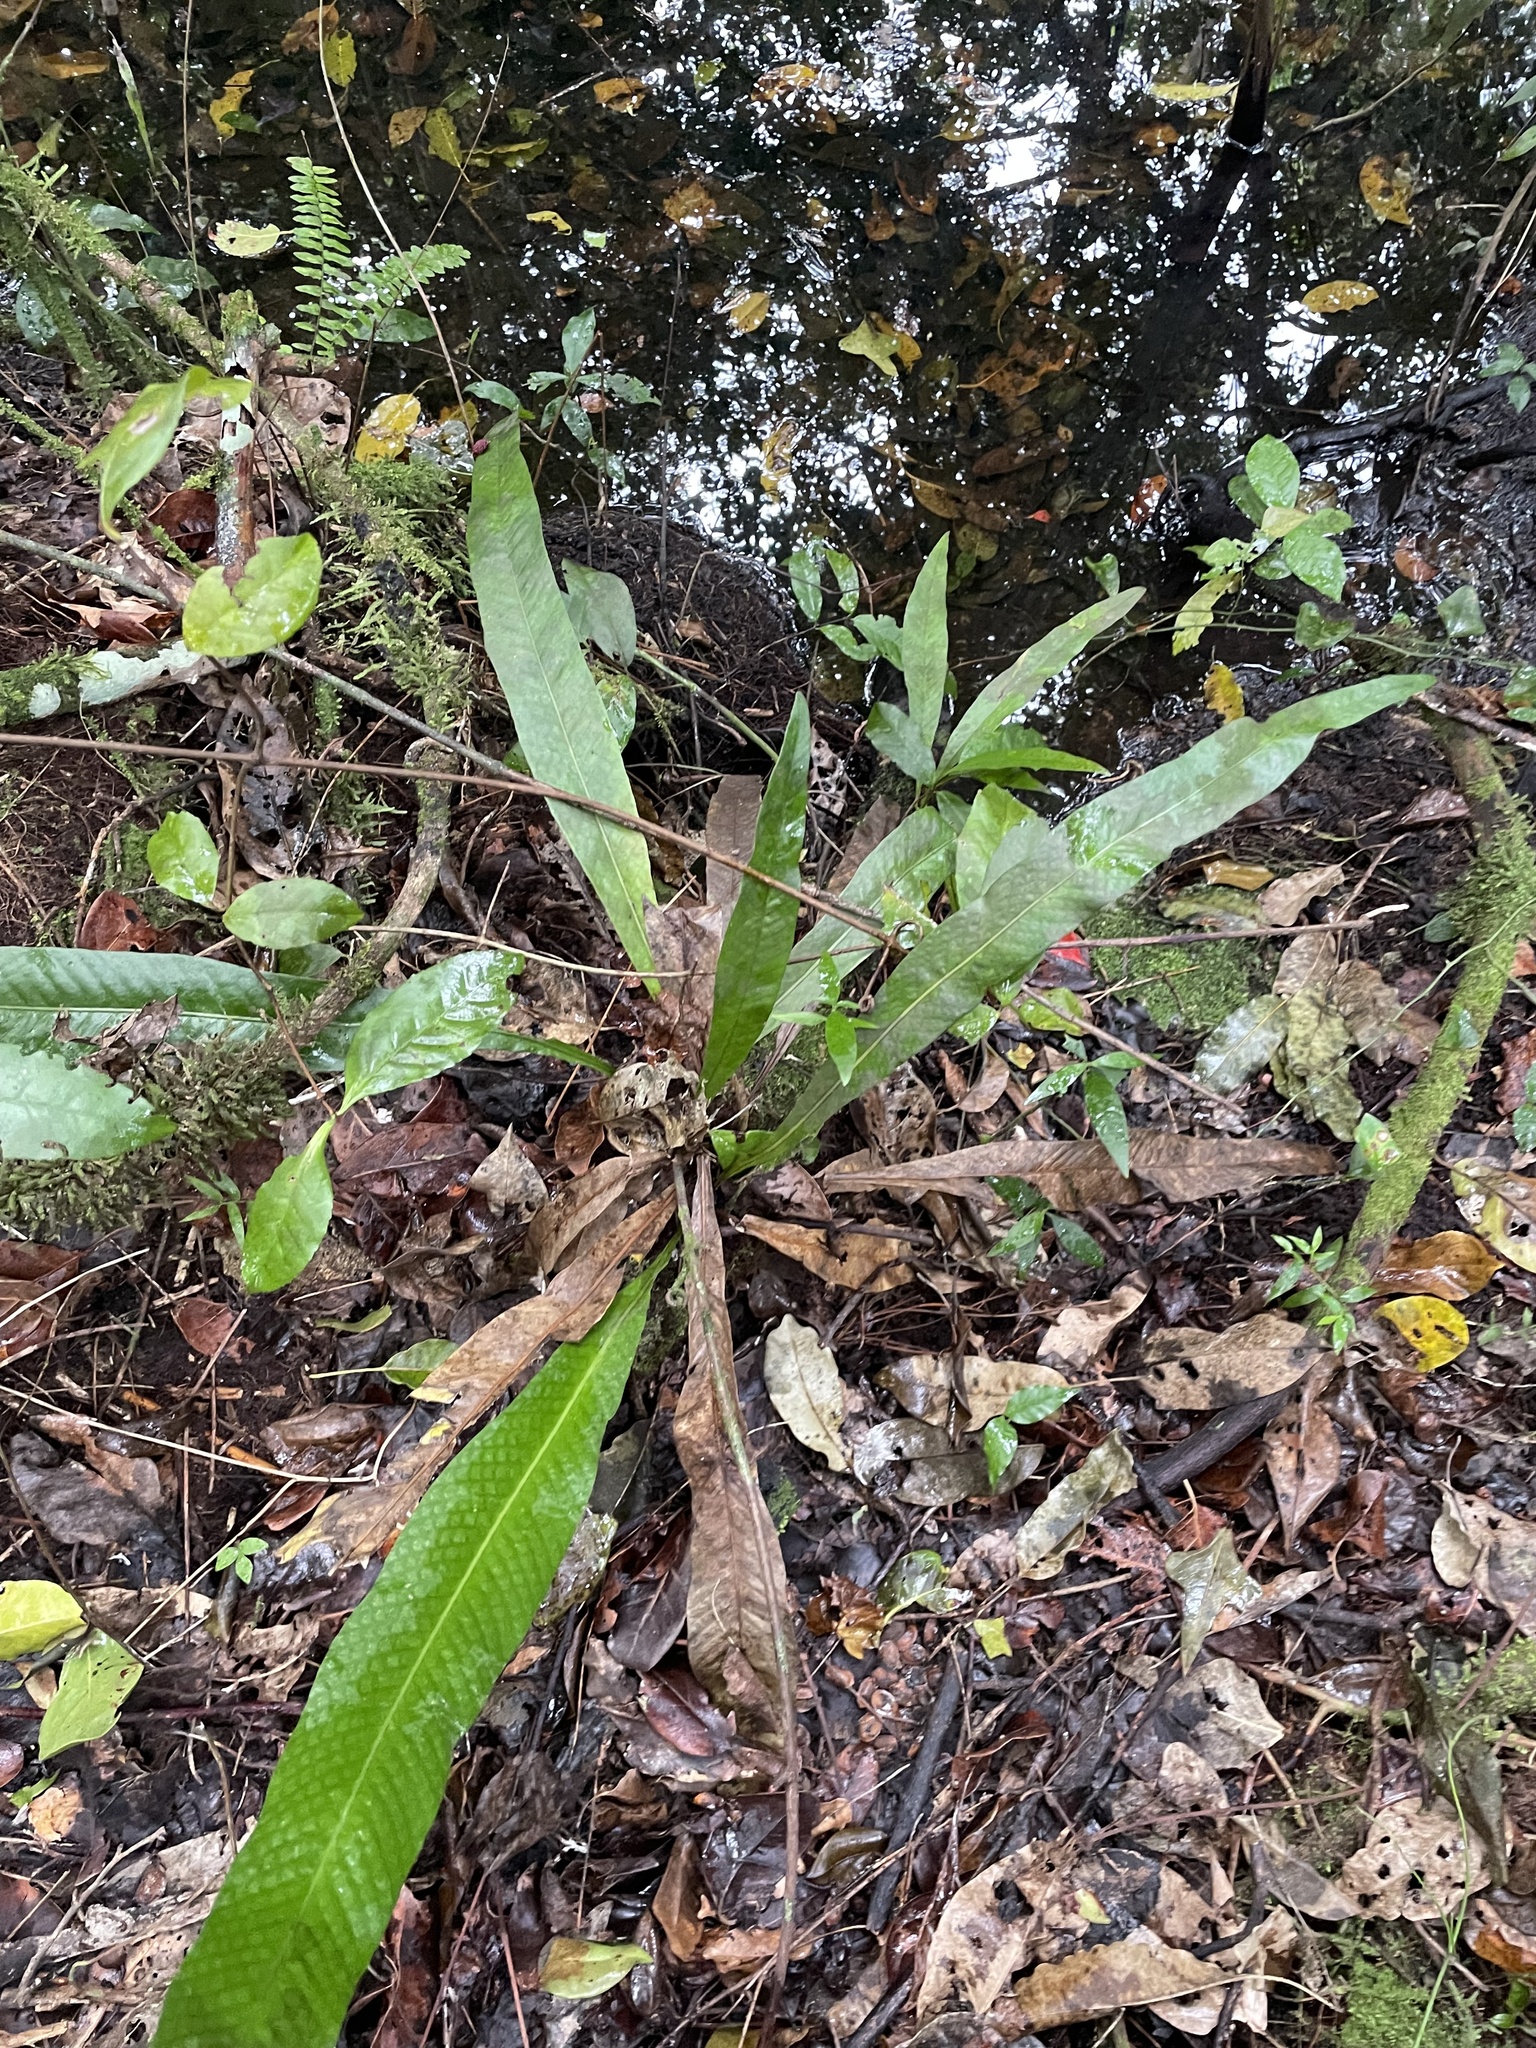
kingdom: Plantae
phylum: Tracheophyta
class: Polypodiopsida
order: Polypodiales
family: Polypodiaceae
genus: Campyloneurum
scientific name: Campyloneurum phyllitidis
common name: Cow-tongue fern
